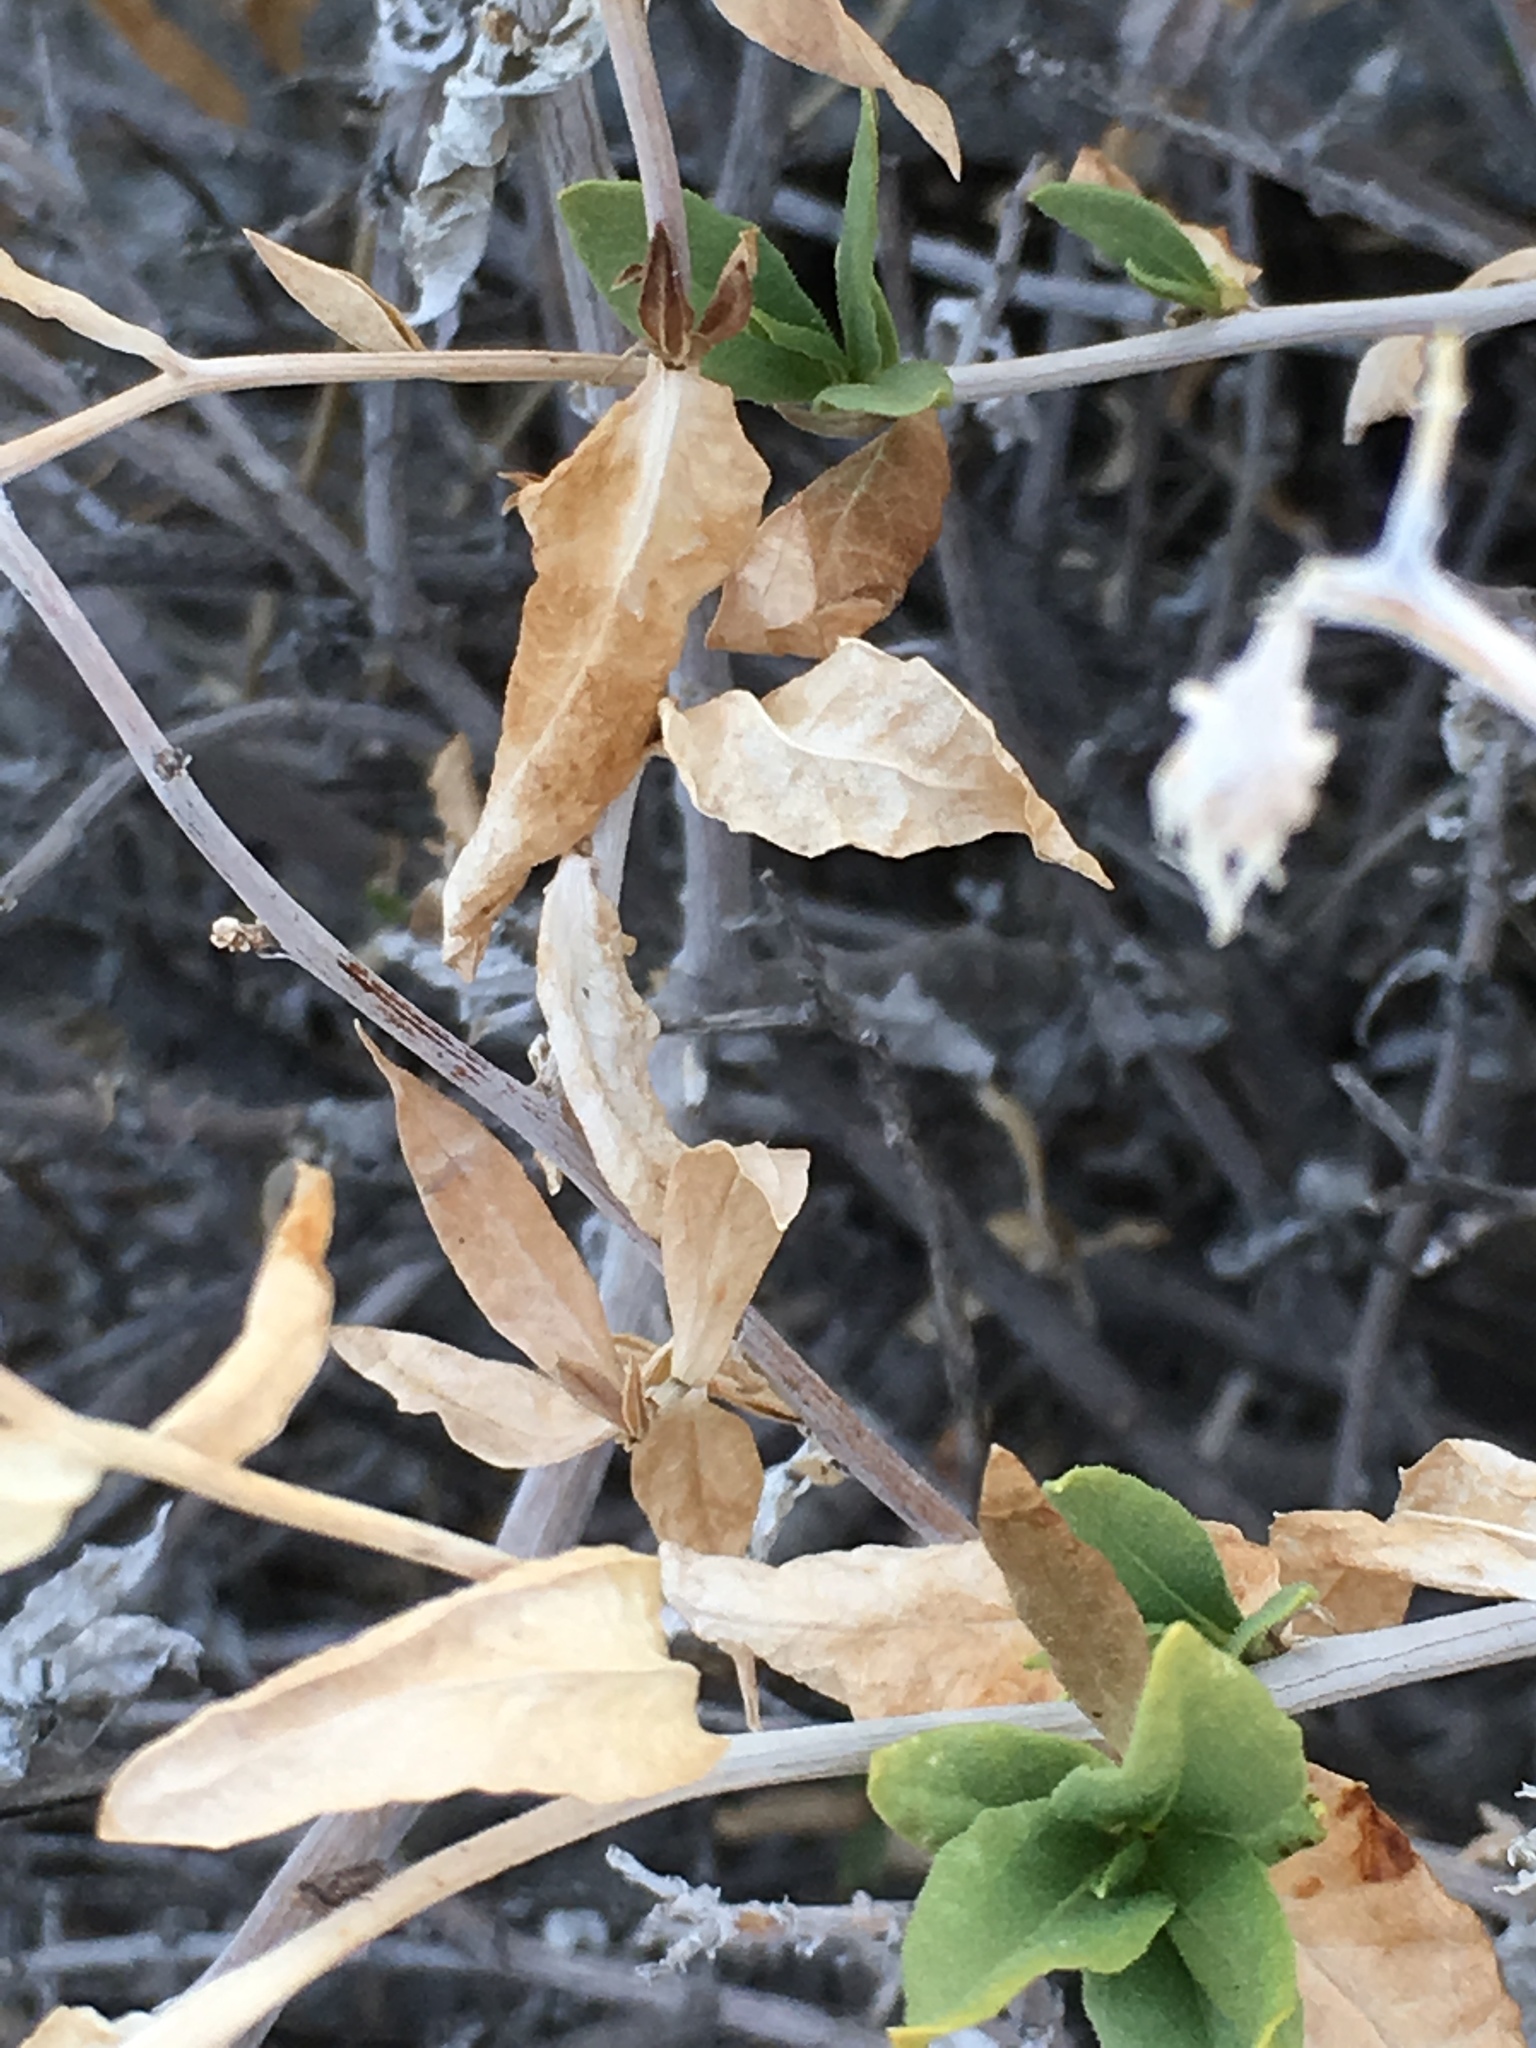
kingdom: Plantae
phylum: Tracheophyta
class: Magnoliopsida
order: Asterales
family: Asteraceae
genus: Trixis
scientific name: Trixis californica
